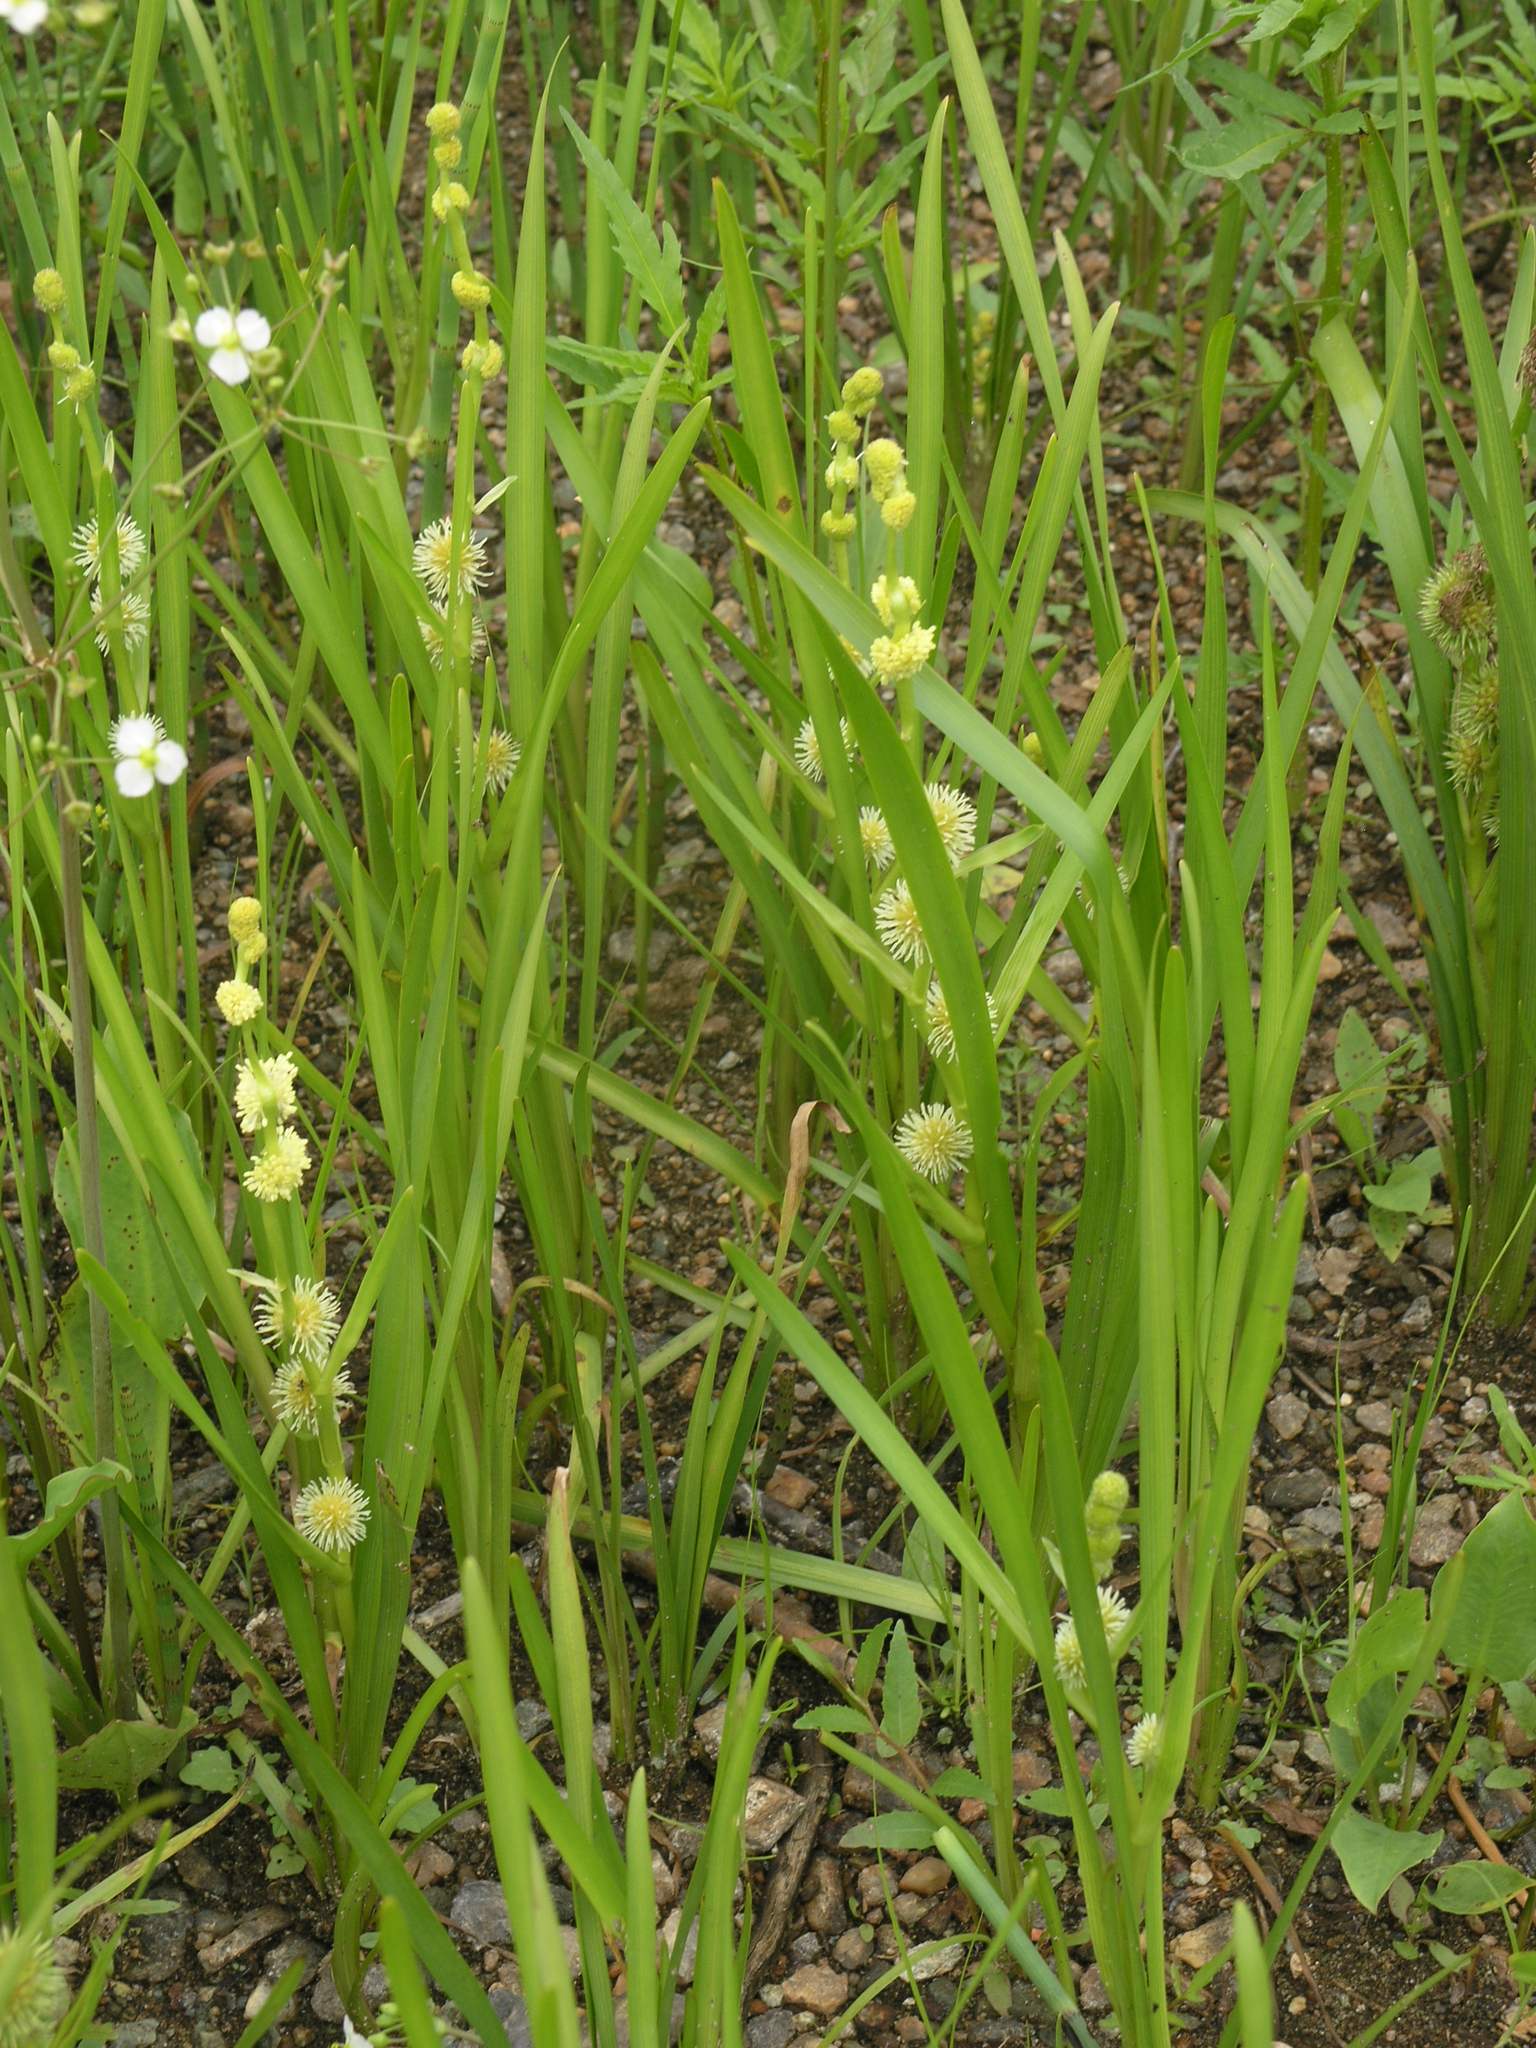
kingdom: Plantae
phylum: Tracheophyta
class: Liliopsida
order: Poales
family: Typhaceae
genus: Sparganium
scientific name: Sparganium emersum
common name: Unbranched bur-reed
